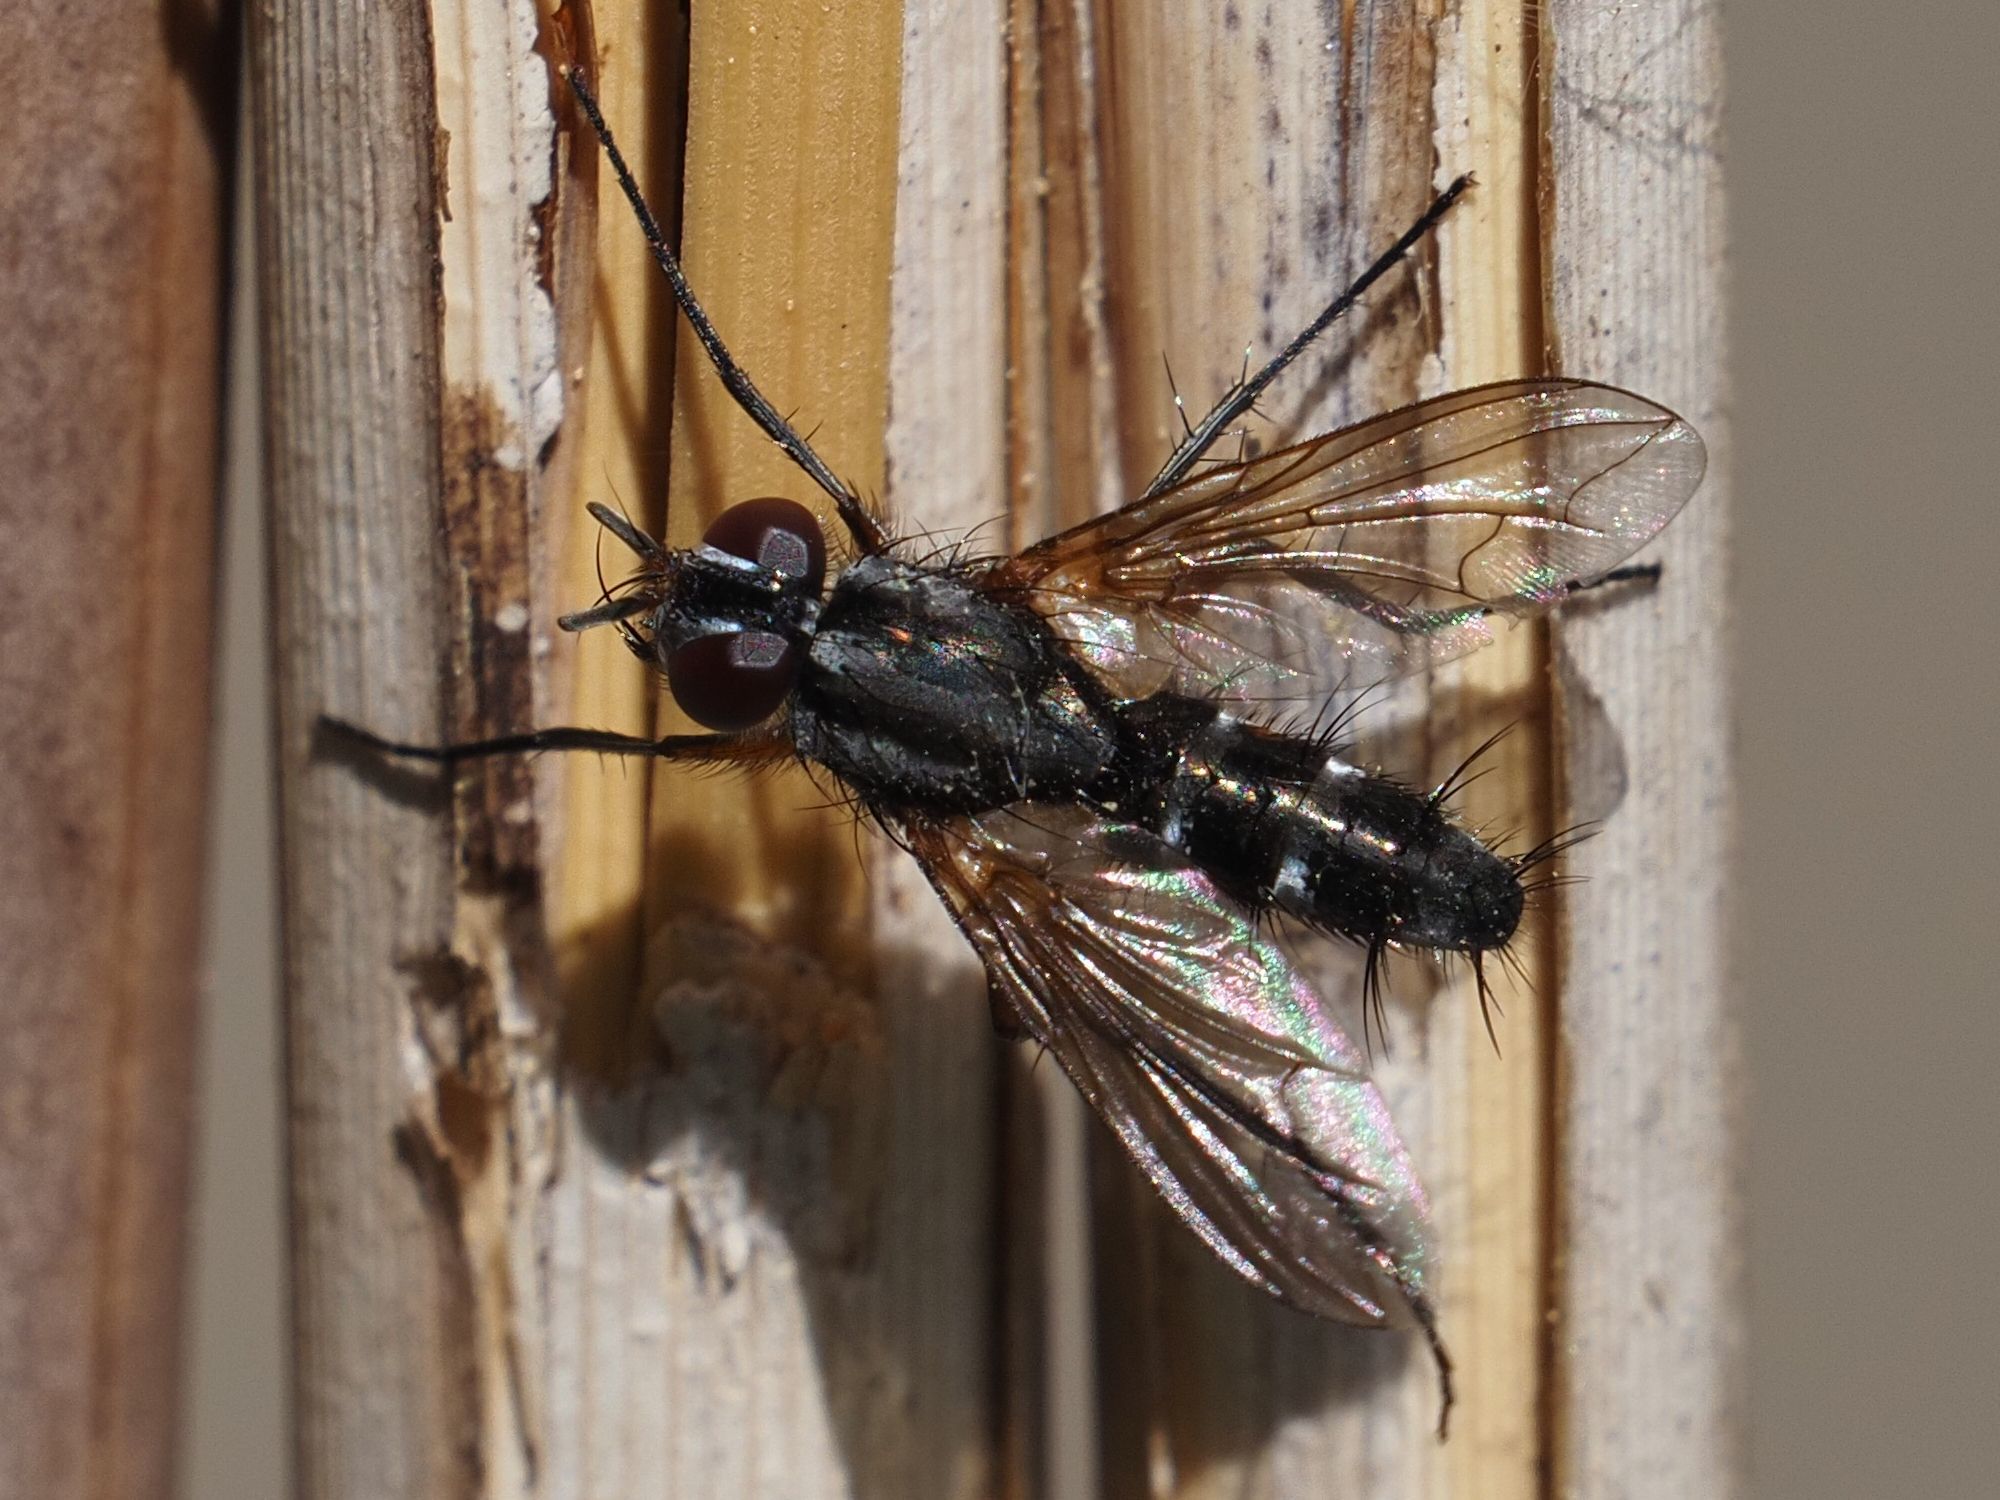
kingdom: Animalia
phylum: Arthropoda
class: Insecta
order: Diptera
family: Tachinidae
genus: Mintho
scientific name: Mintho rufiventris
